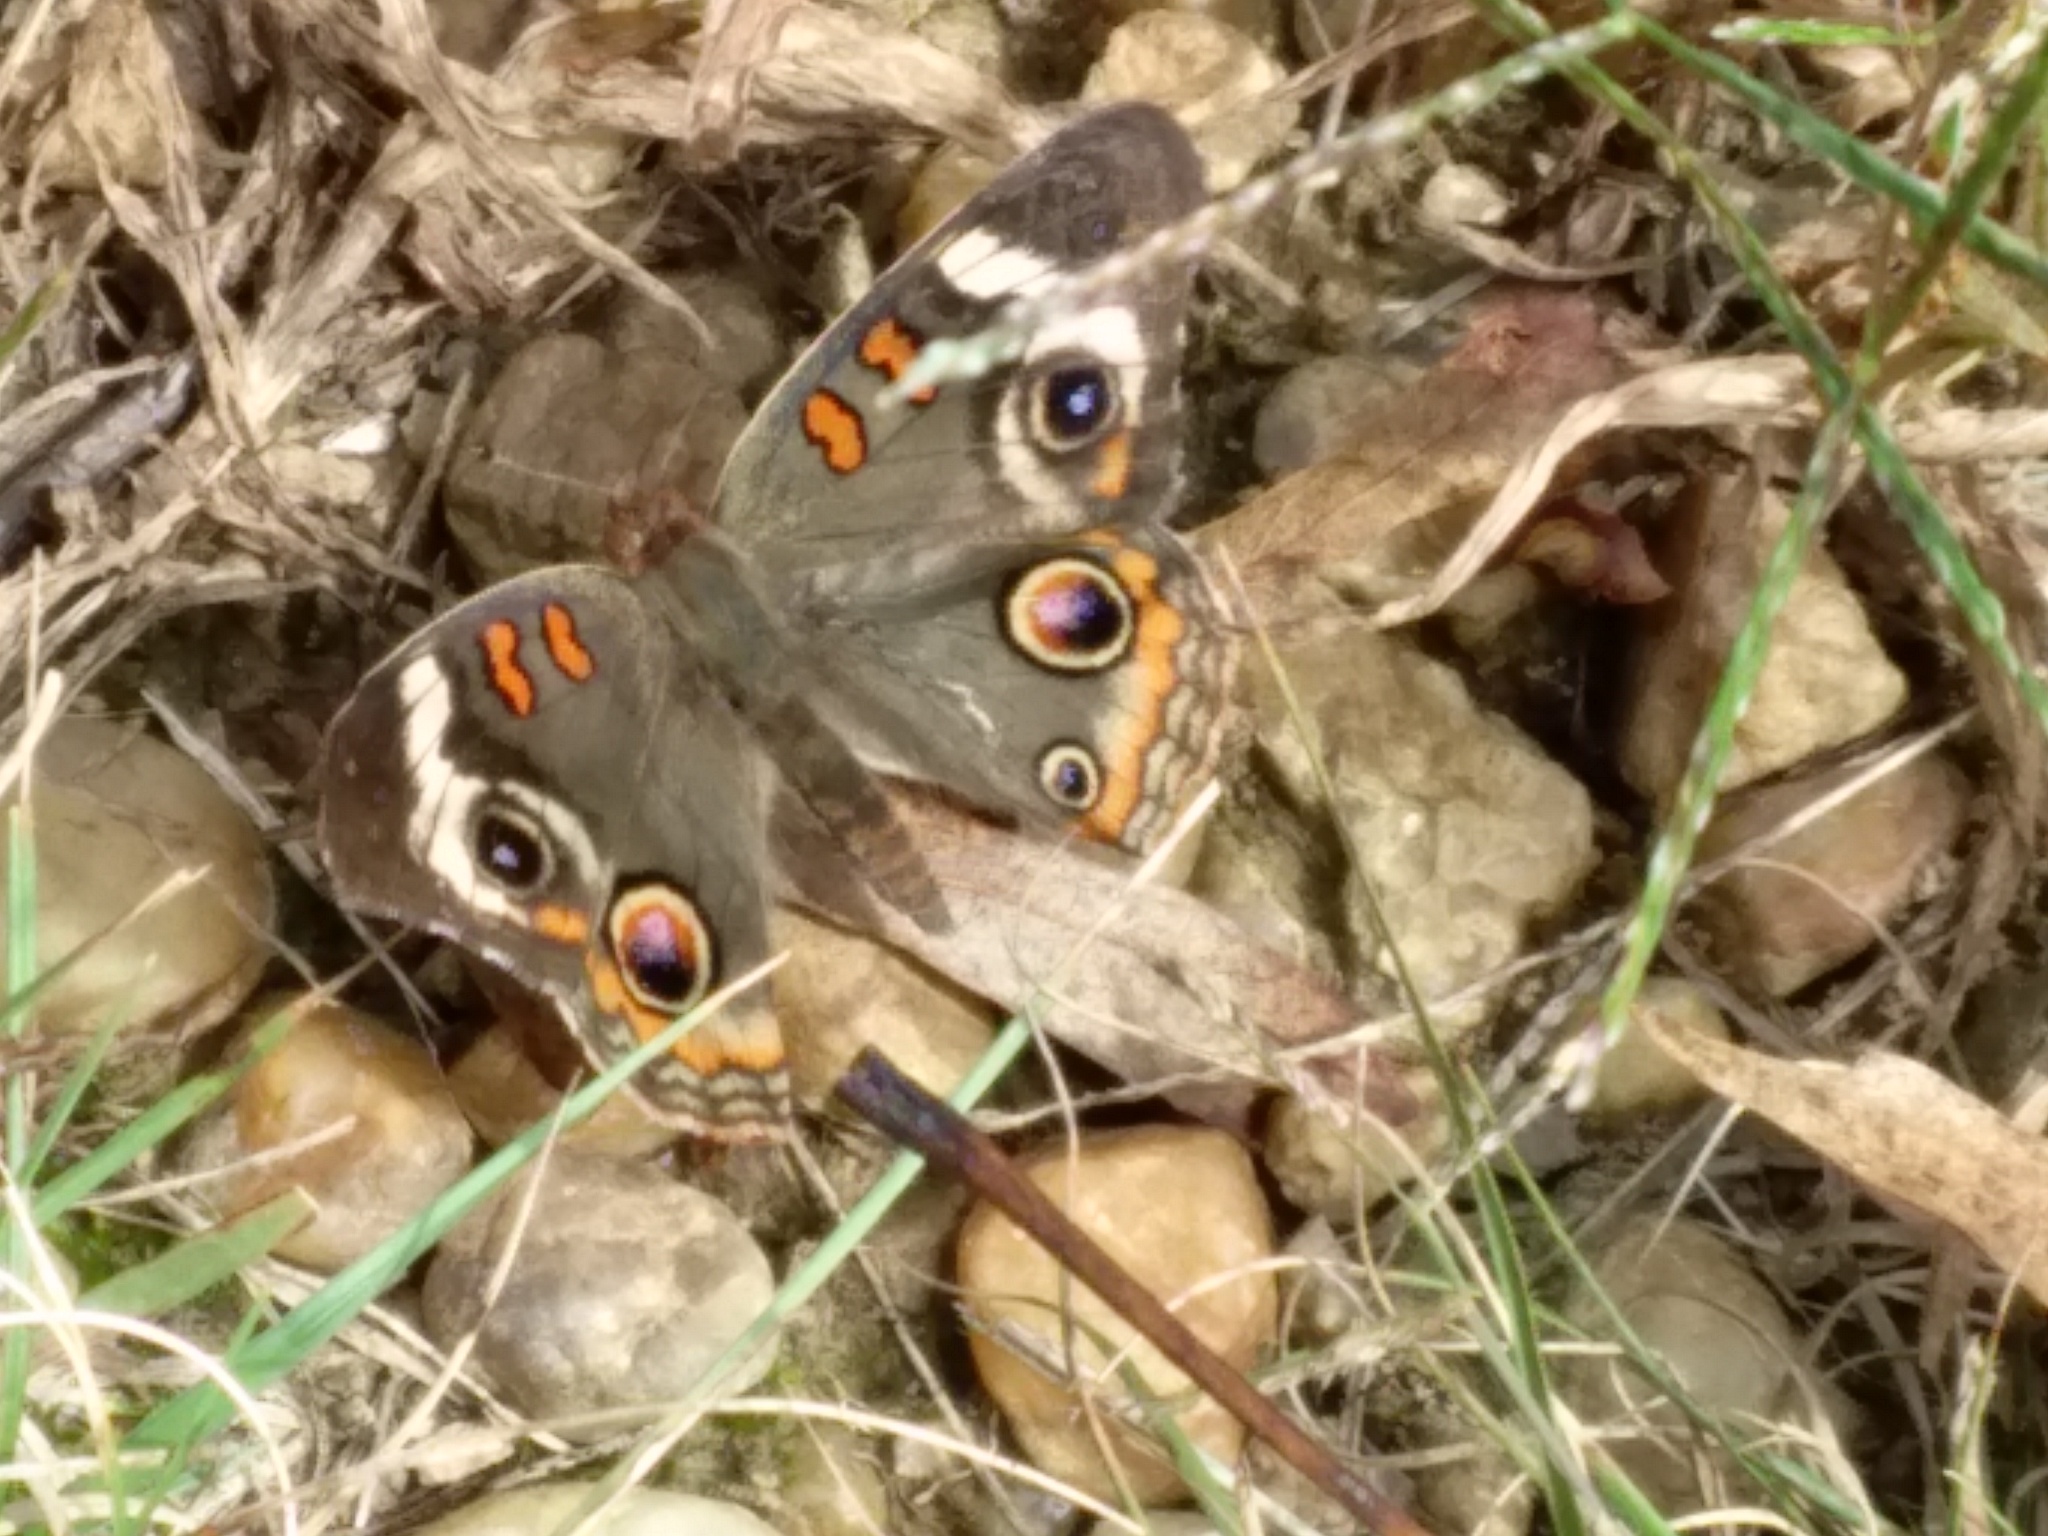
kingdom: Animalia
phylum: Arthropoda
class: Insecta
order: Lepidoptera
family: Nymphalidae
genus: Junonia
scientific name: Junonia coenia
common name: Common buckeye
